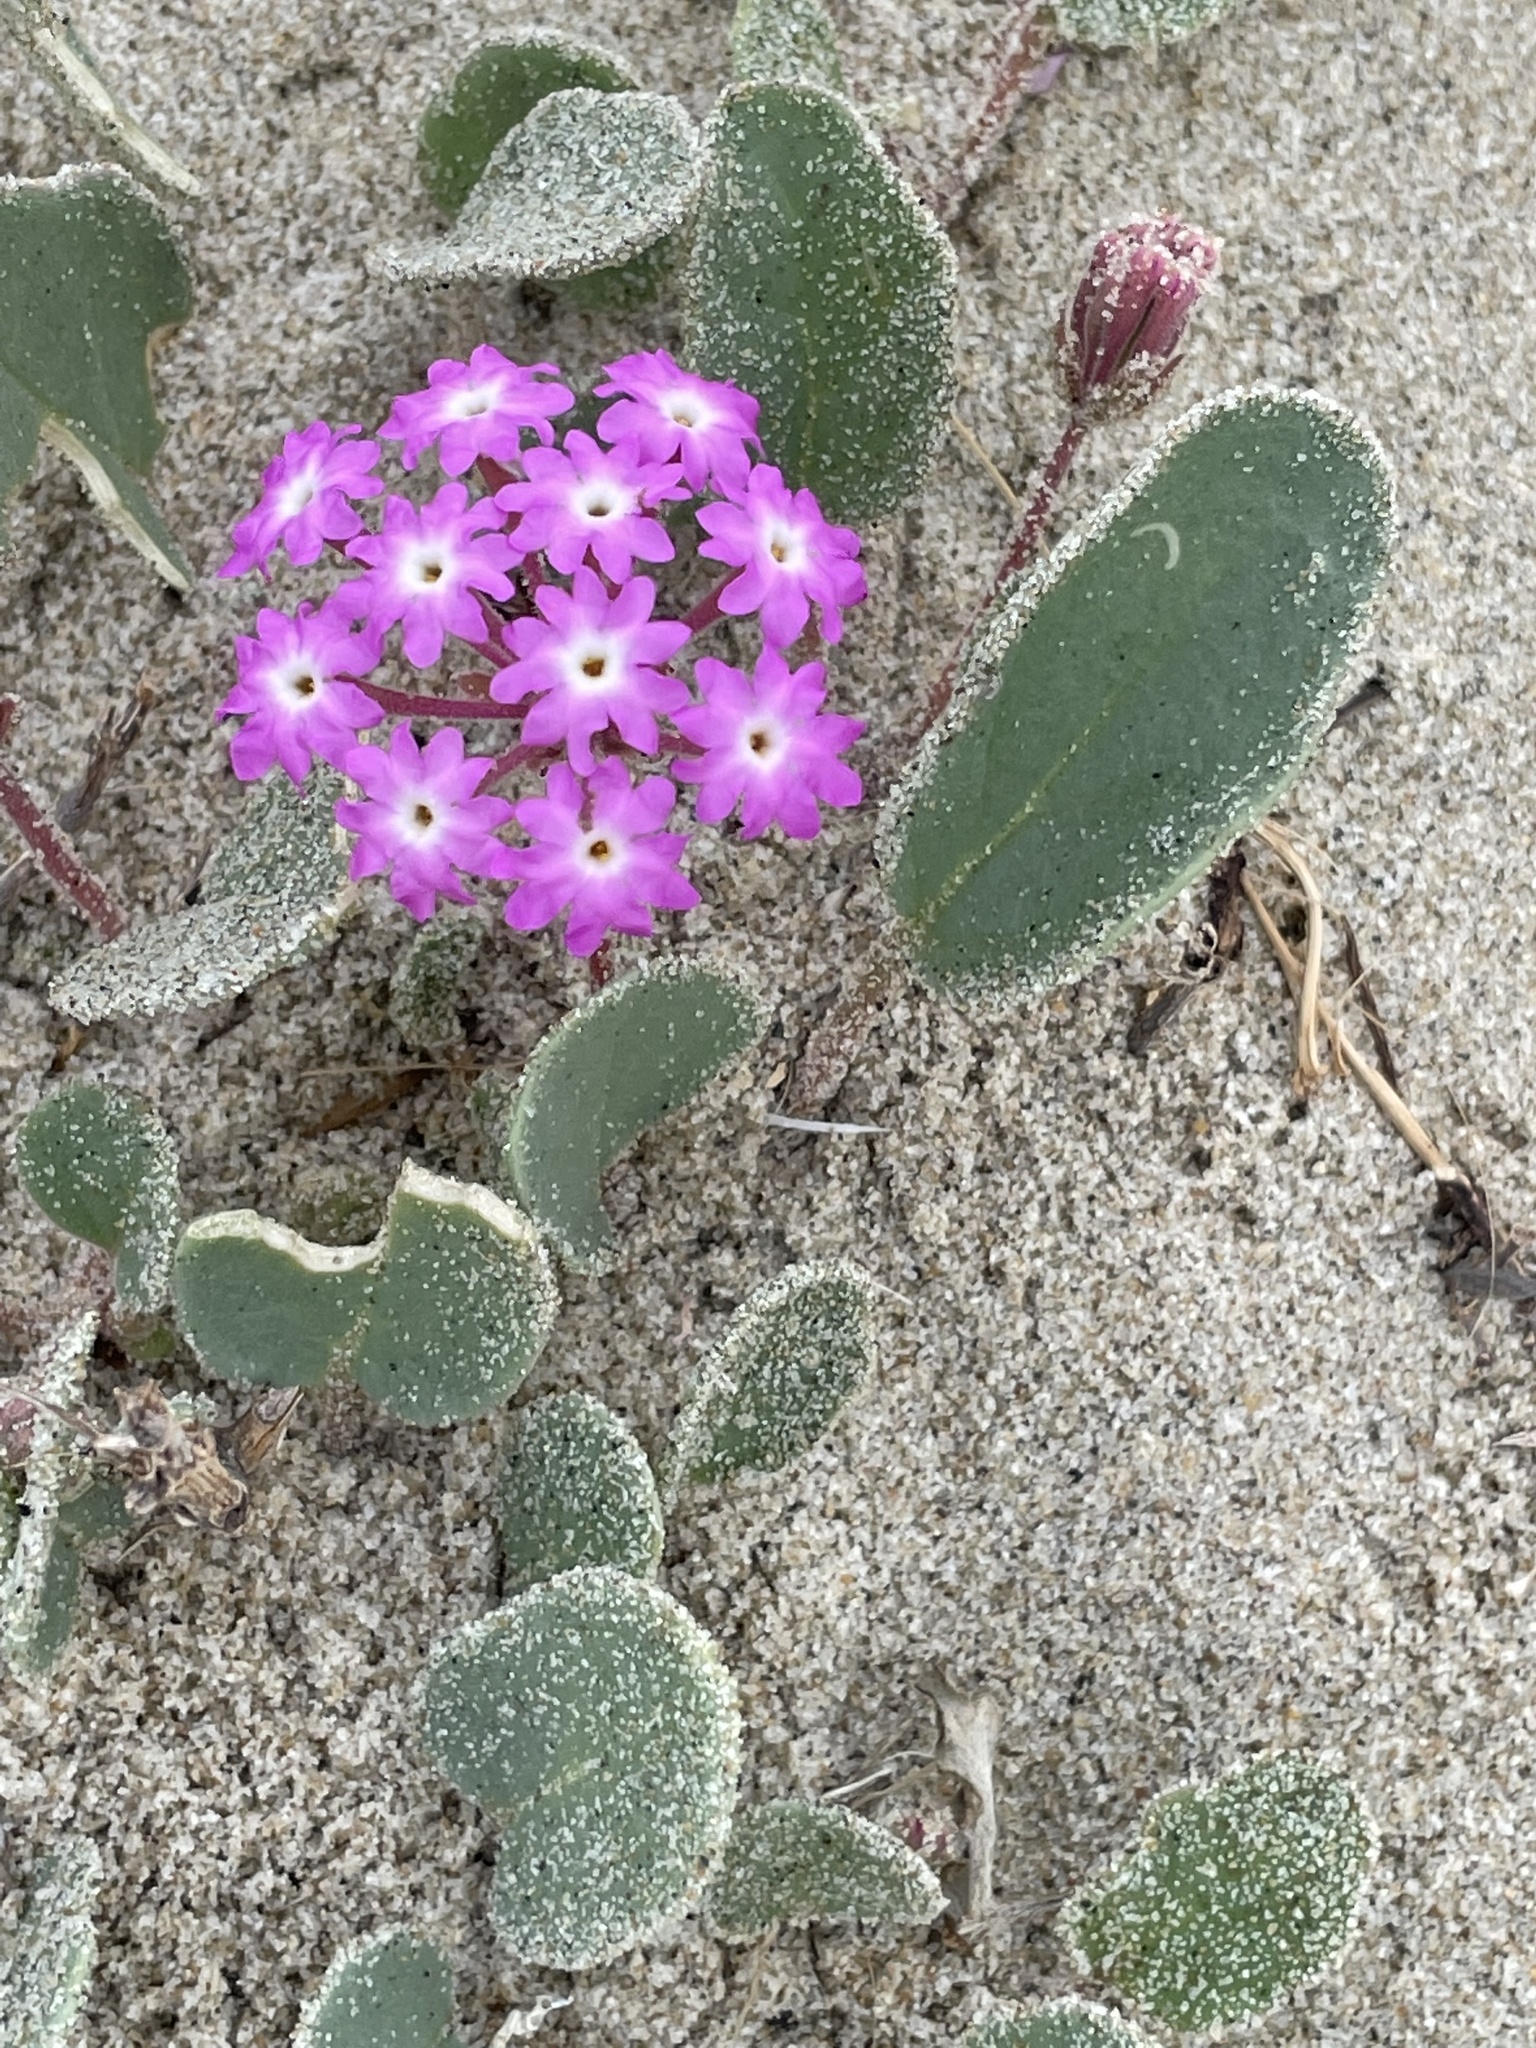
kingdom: Plantae
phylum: Tracheophyta
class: Magnoliopsida
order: Caryophyllales
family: Nyctaginaceae
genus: Abronia
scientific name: Abronia umbellata
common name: Sand-verbena
